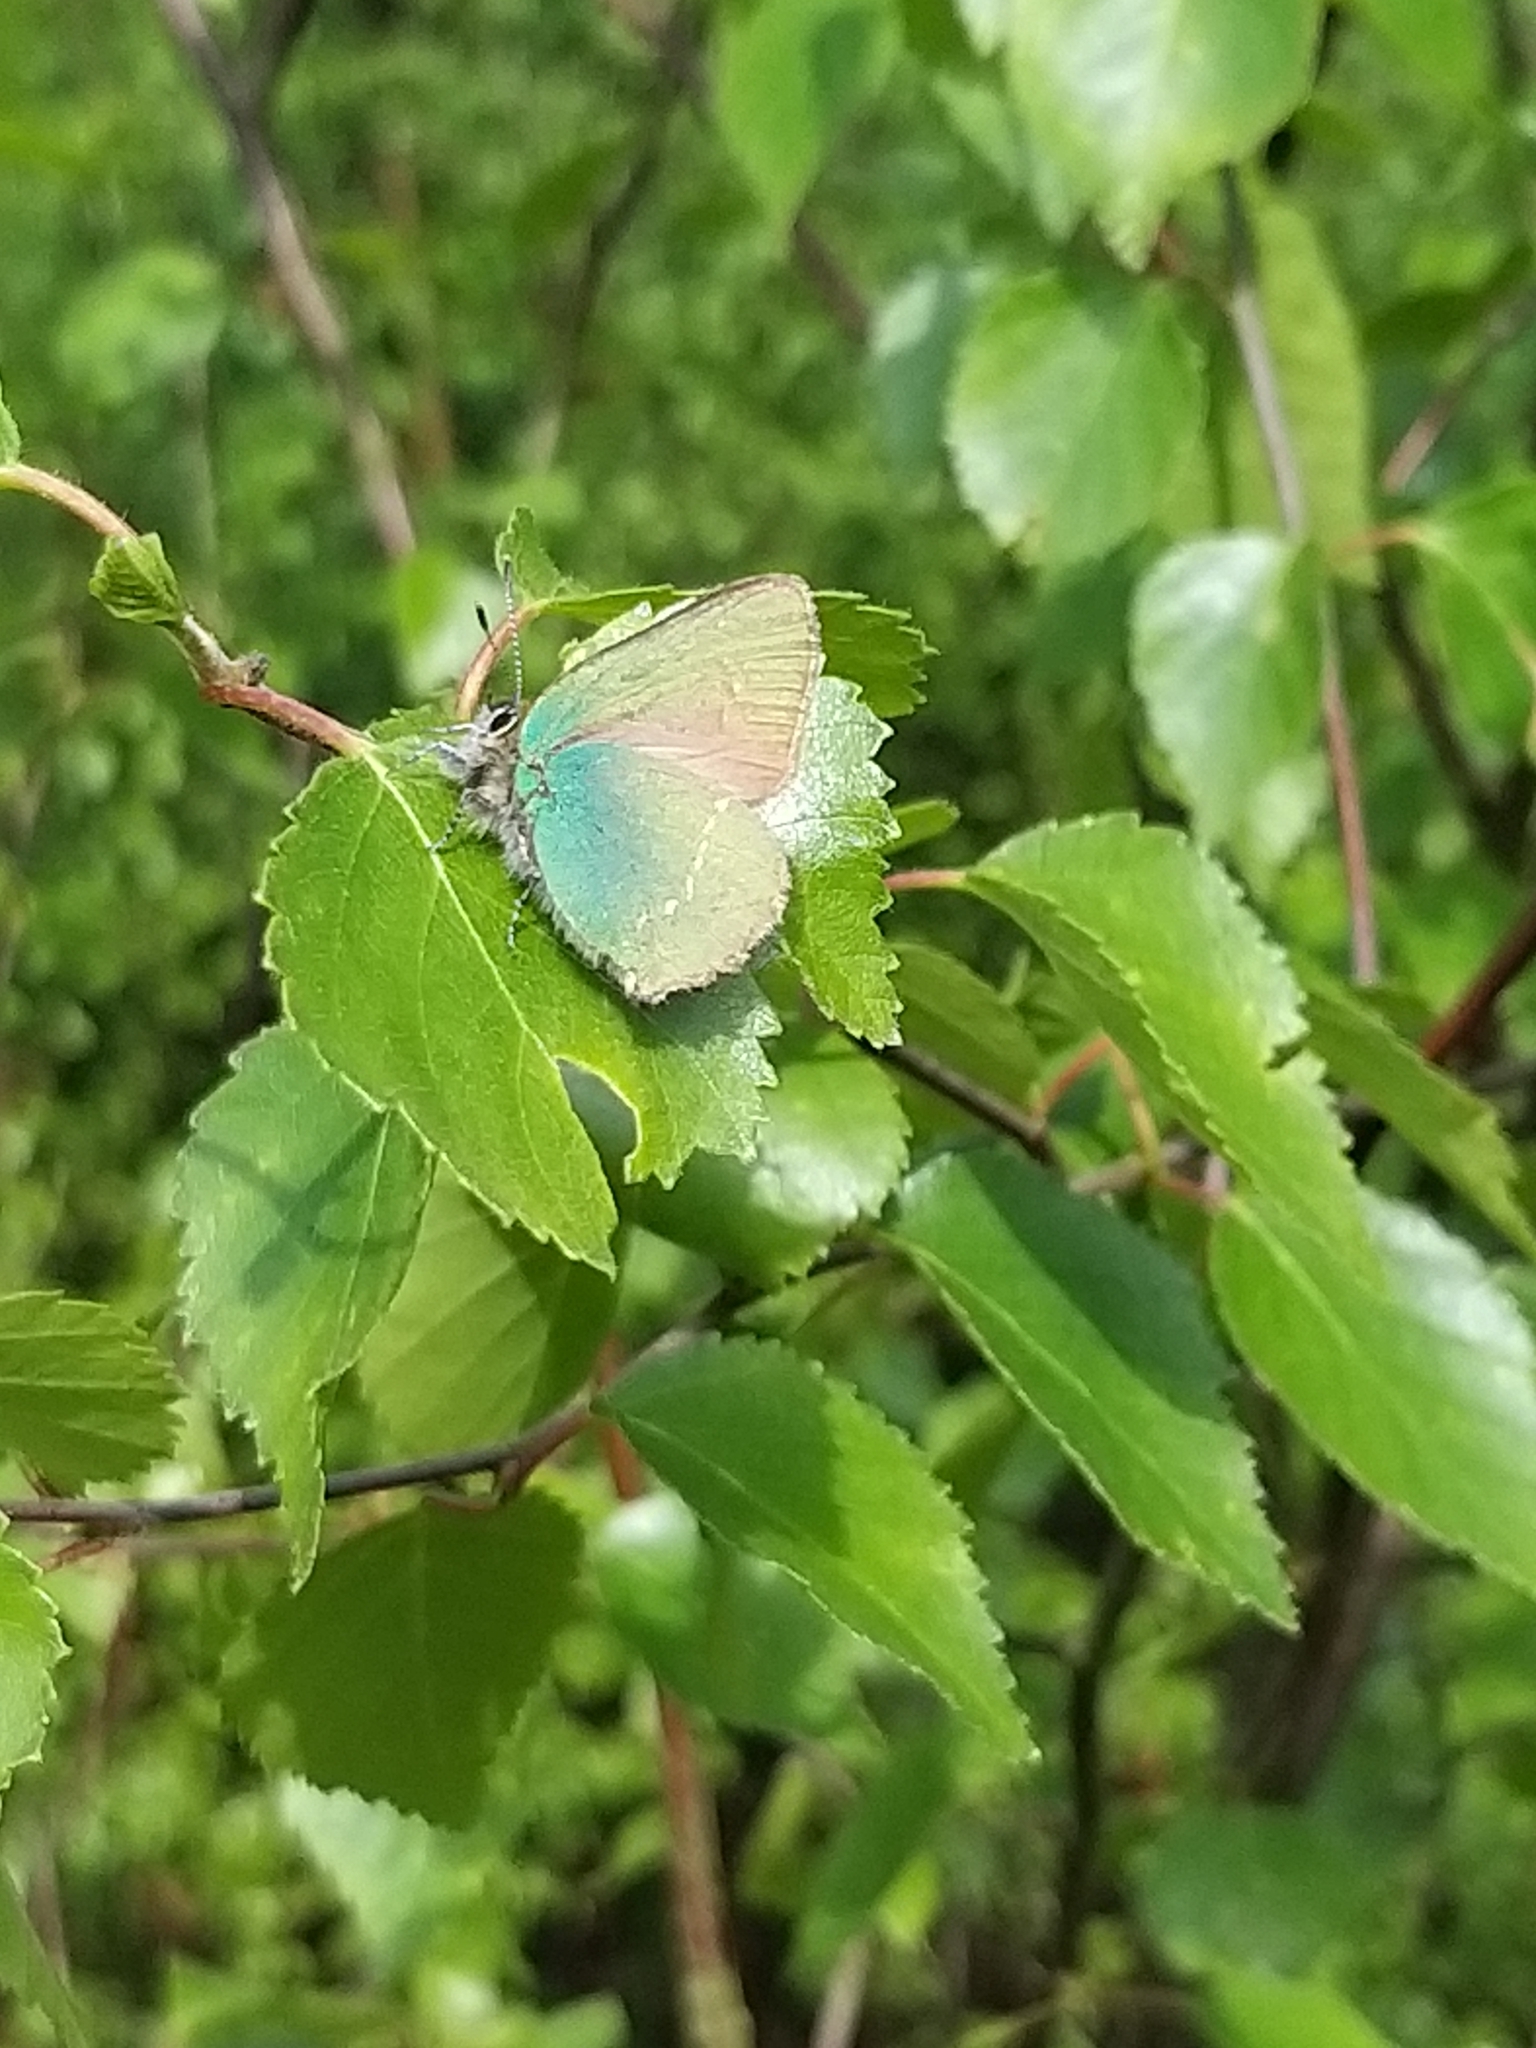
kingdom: Animalia
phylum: Arthropoda
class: Insecta
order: Lepidoptera
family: Lycaenidae
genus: Callophrys
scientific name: Callophrys rubi
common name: Green hairstreak
